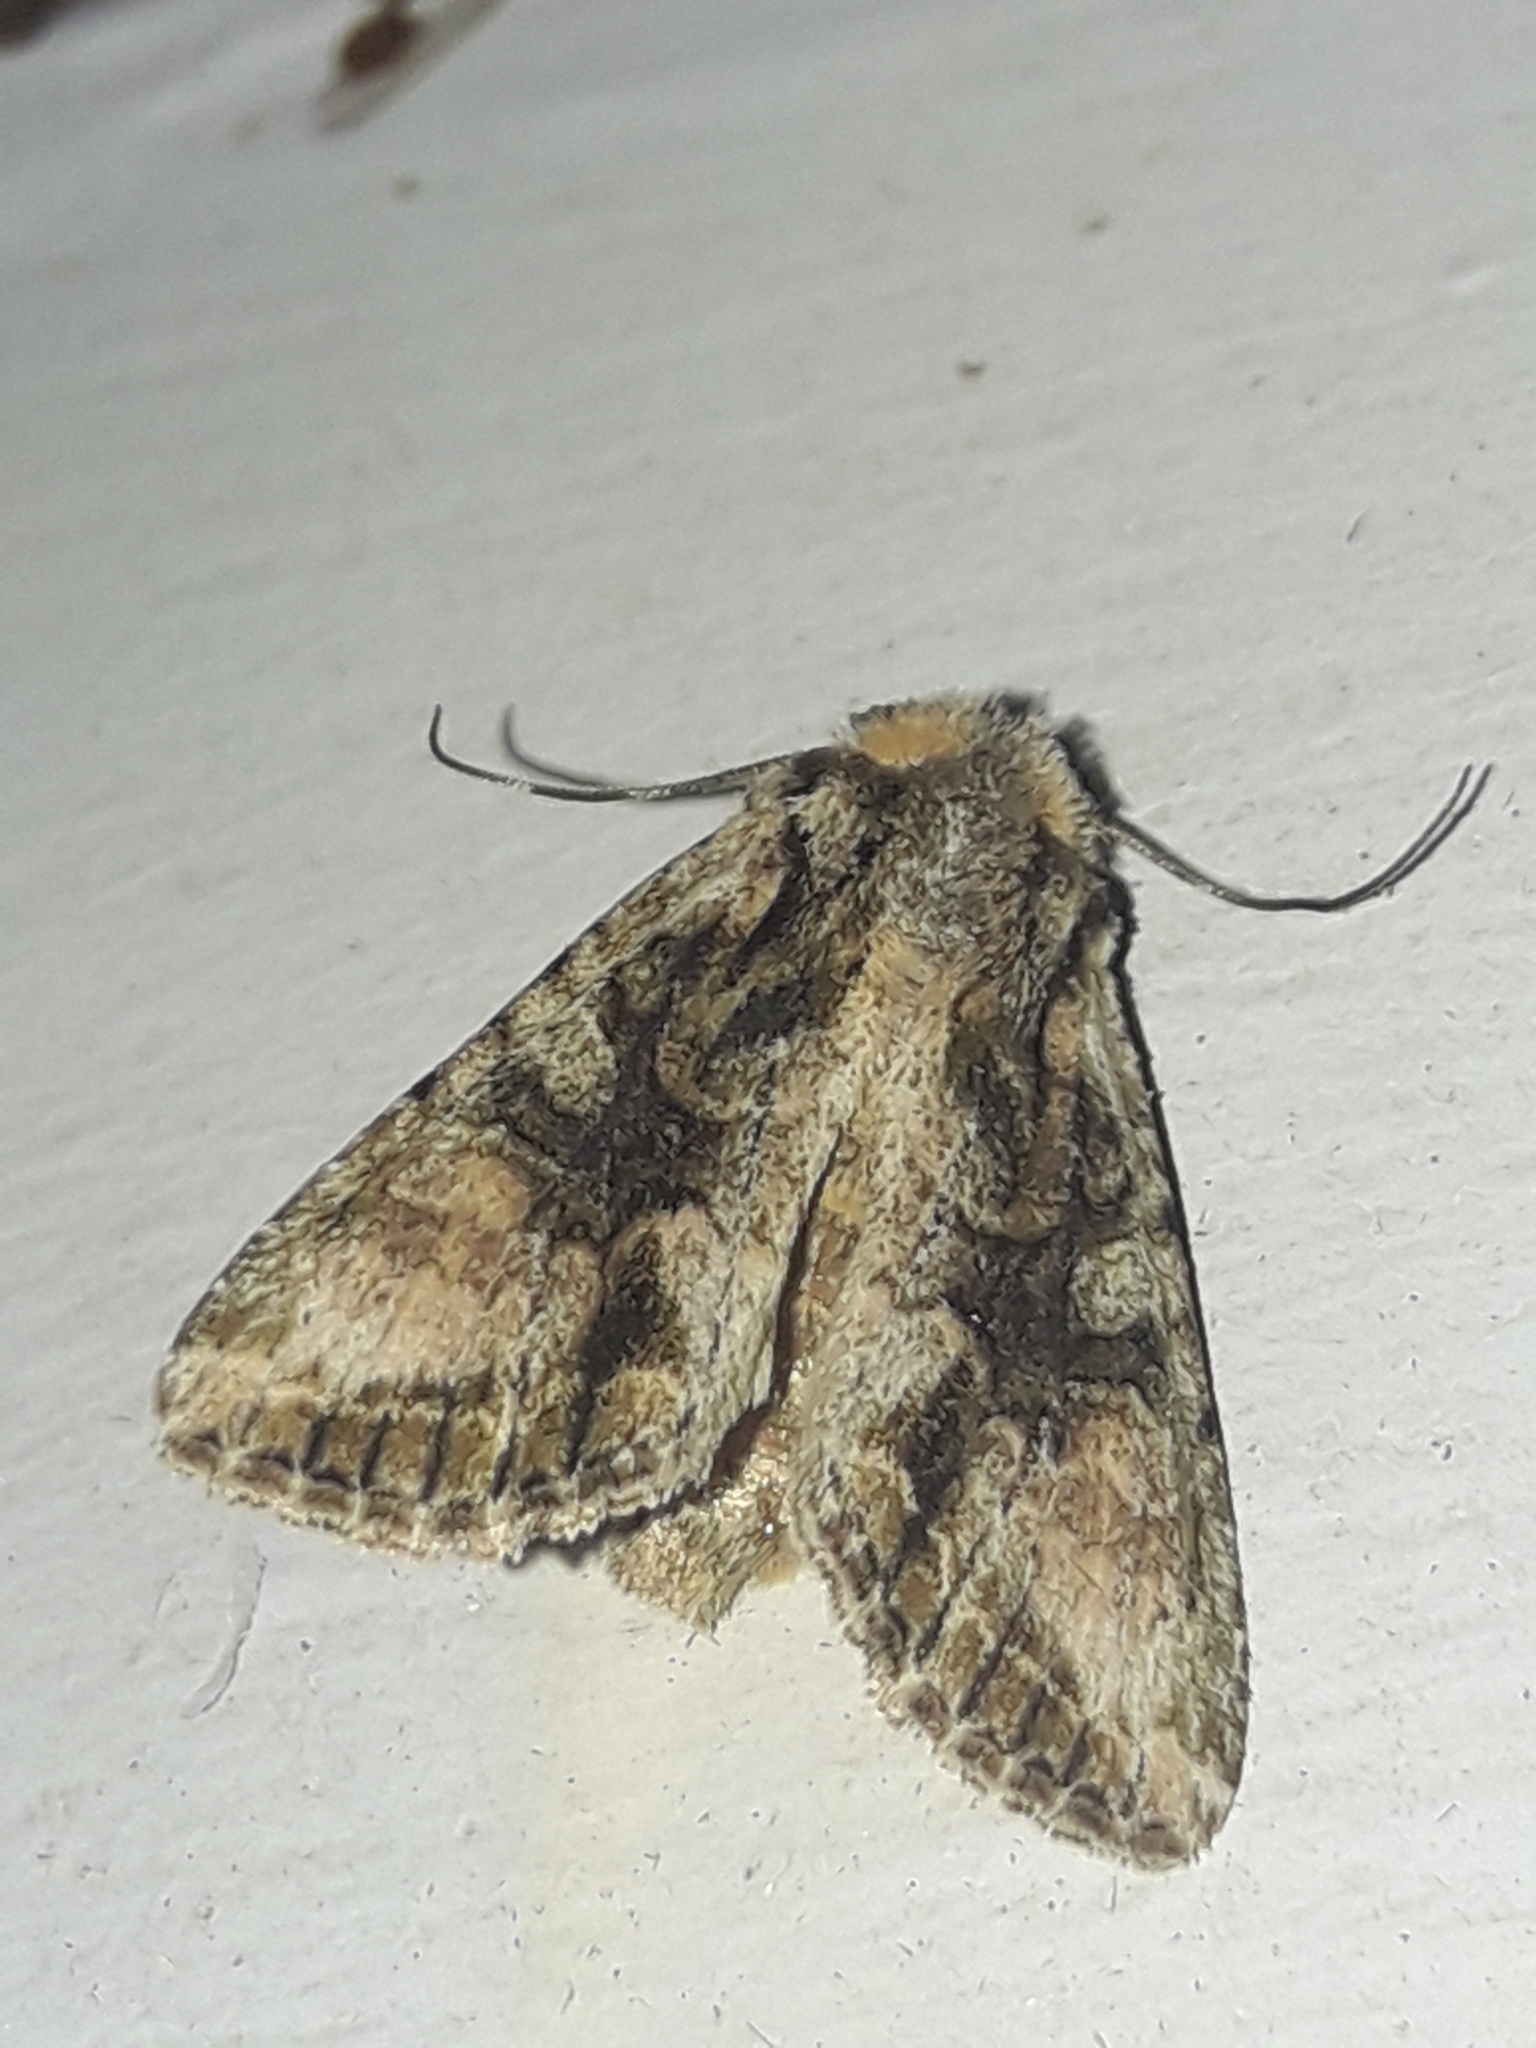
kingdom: Animalia
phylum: Arthropoda
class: Insecta
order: Lepidoptera
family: Noctuidae
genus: Ichneutica
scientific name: Ichneutica mutans
